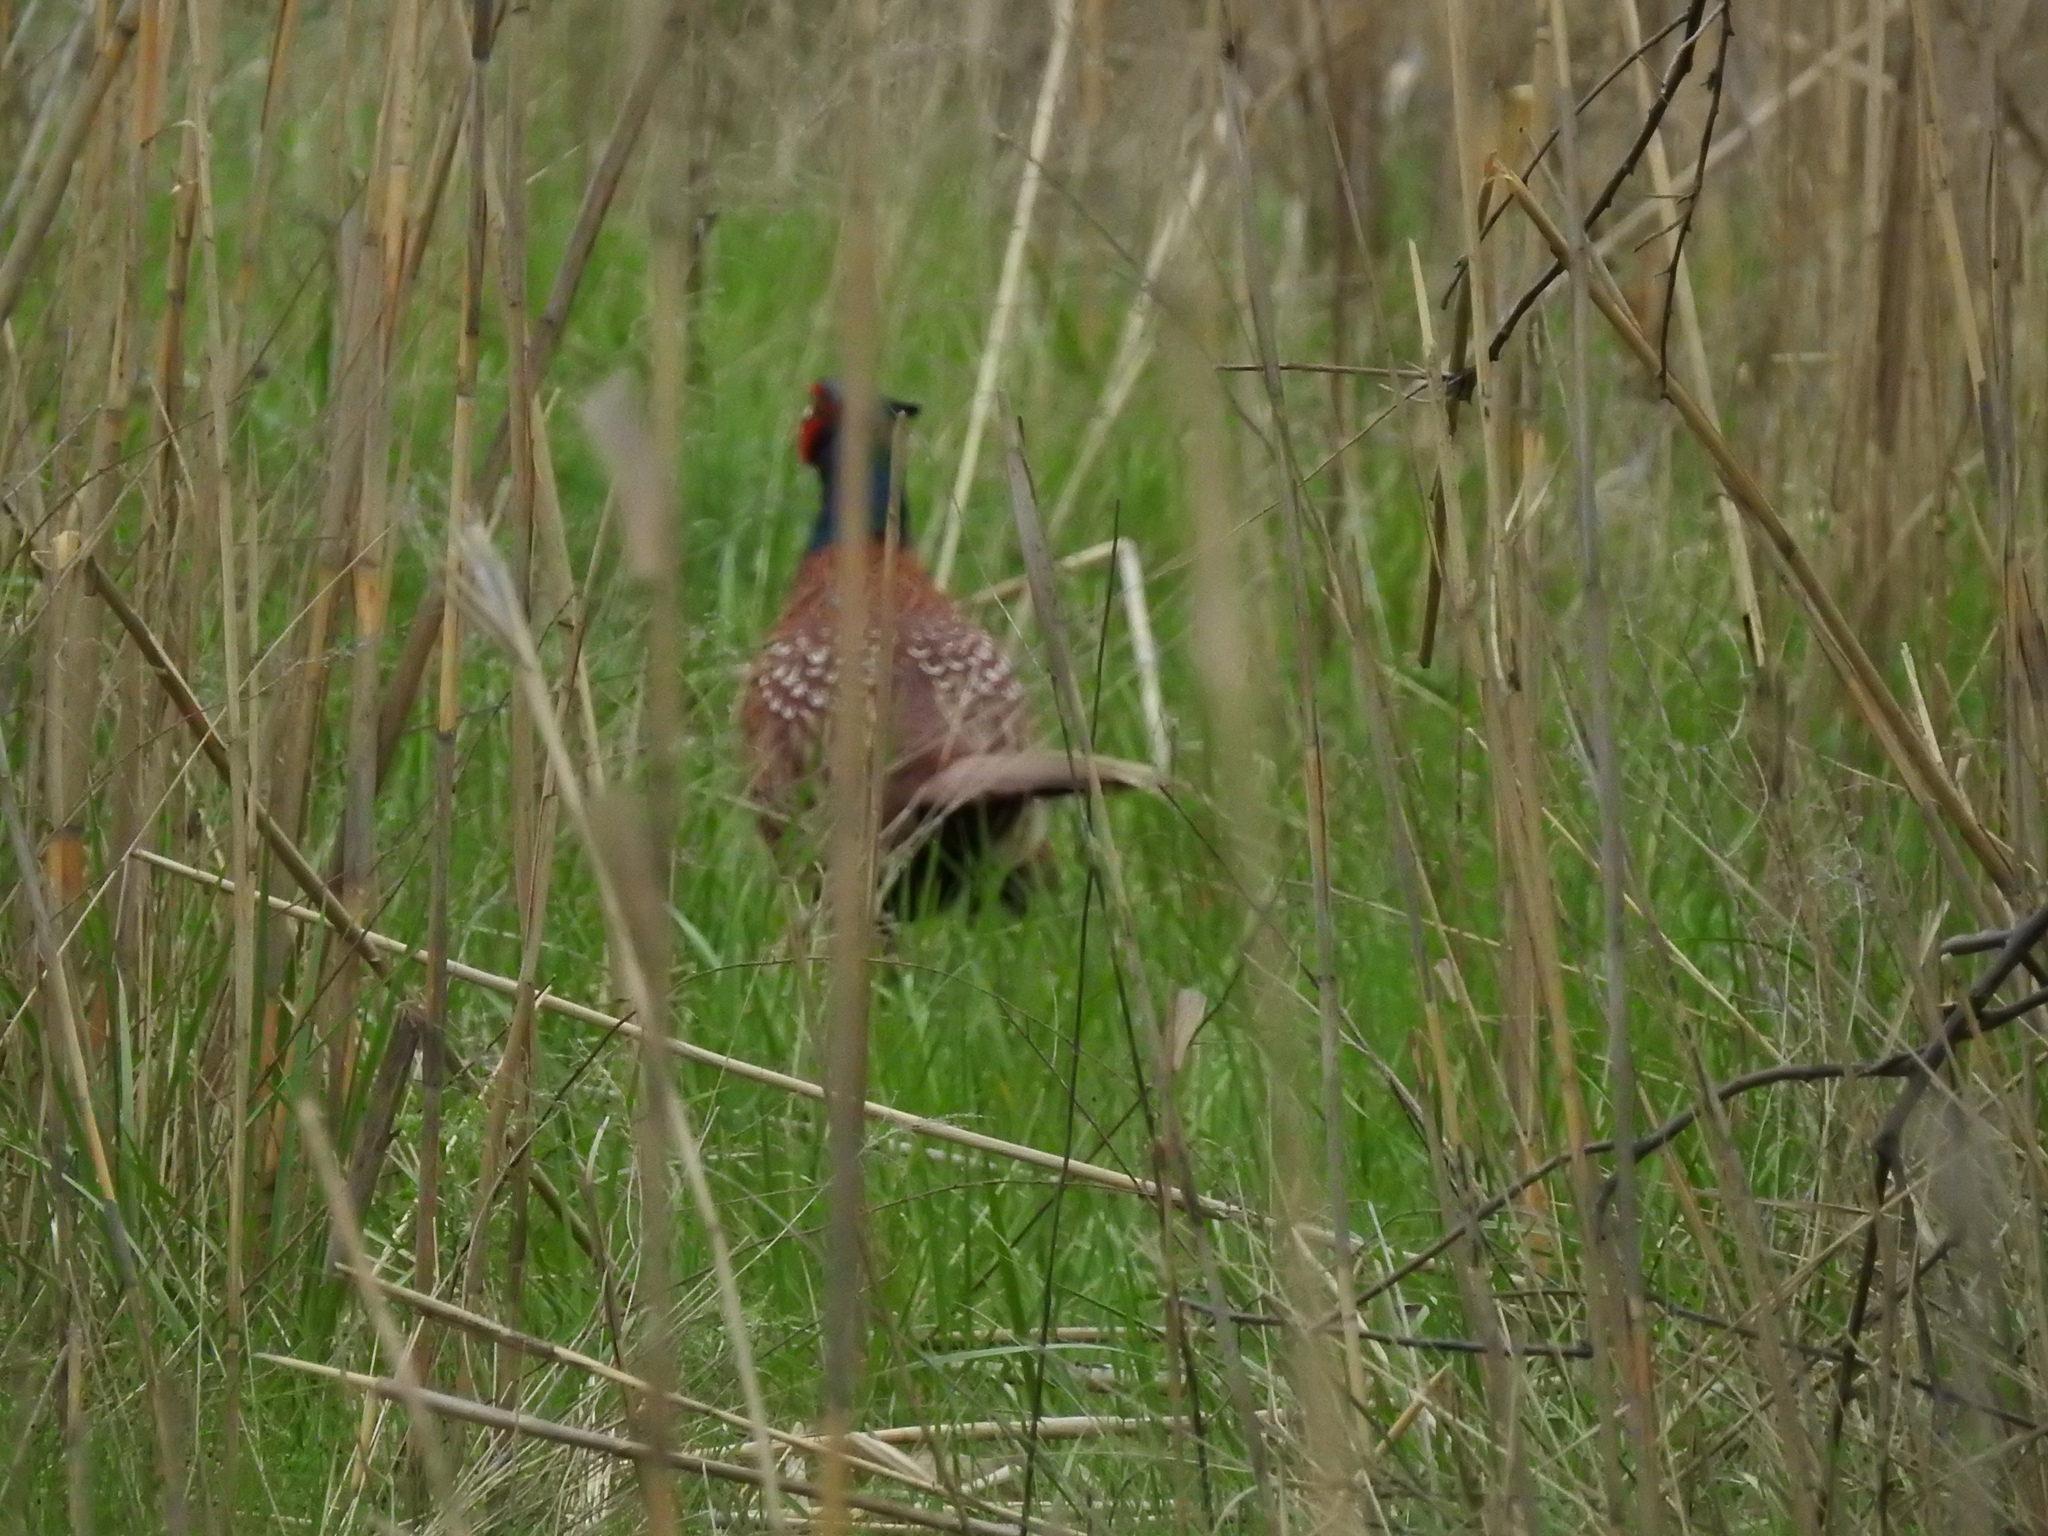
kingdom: Animalia
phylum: Chordata
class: Aves
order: Galliformes
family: Phasianidae
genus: Phasianus
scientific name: Phasianus colchicus
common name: Common pheasant
